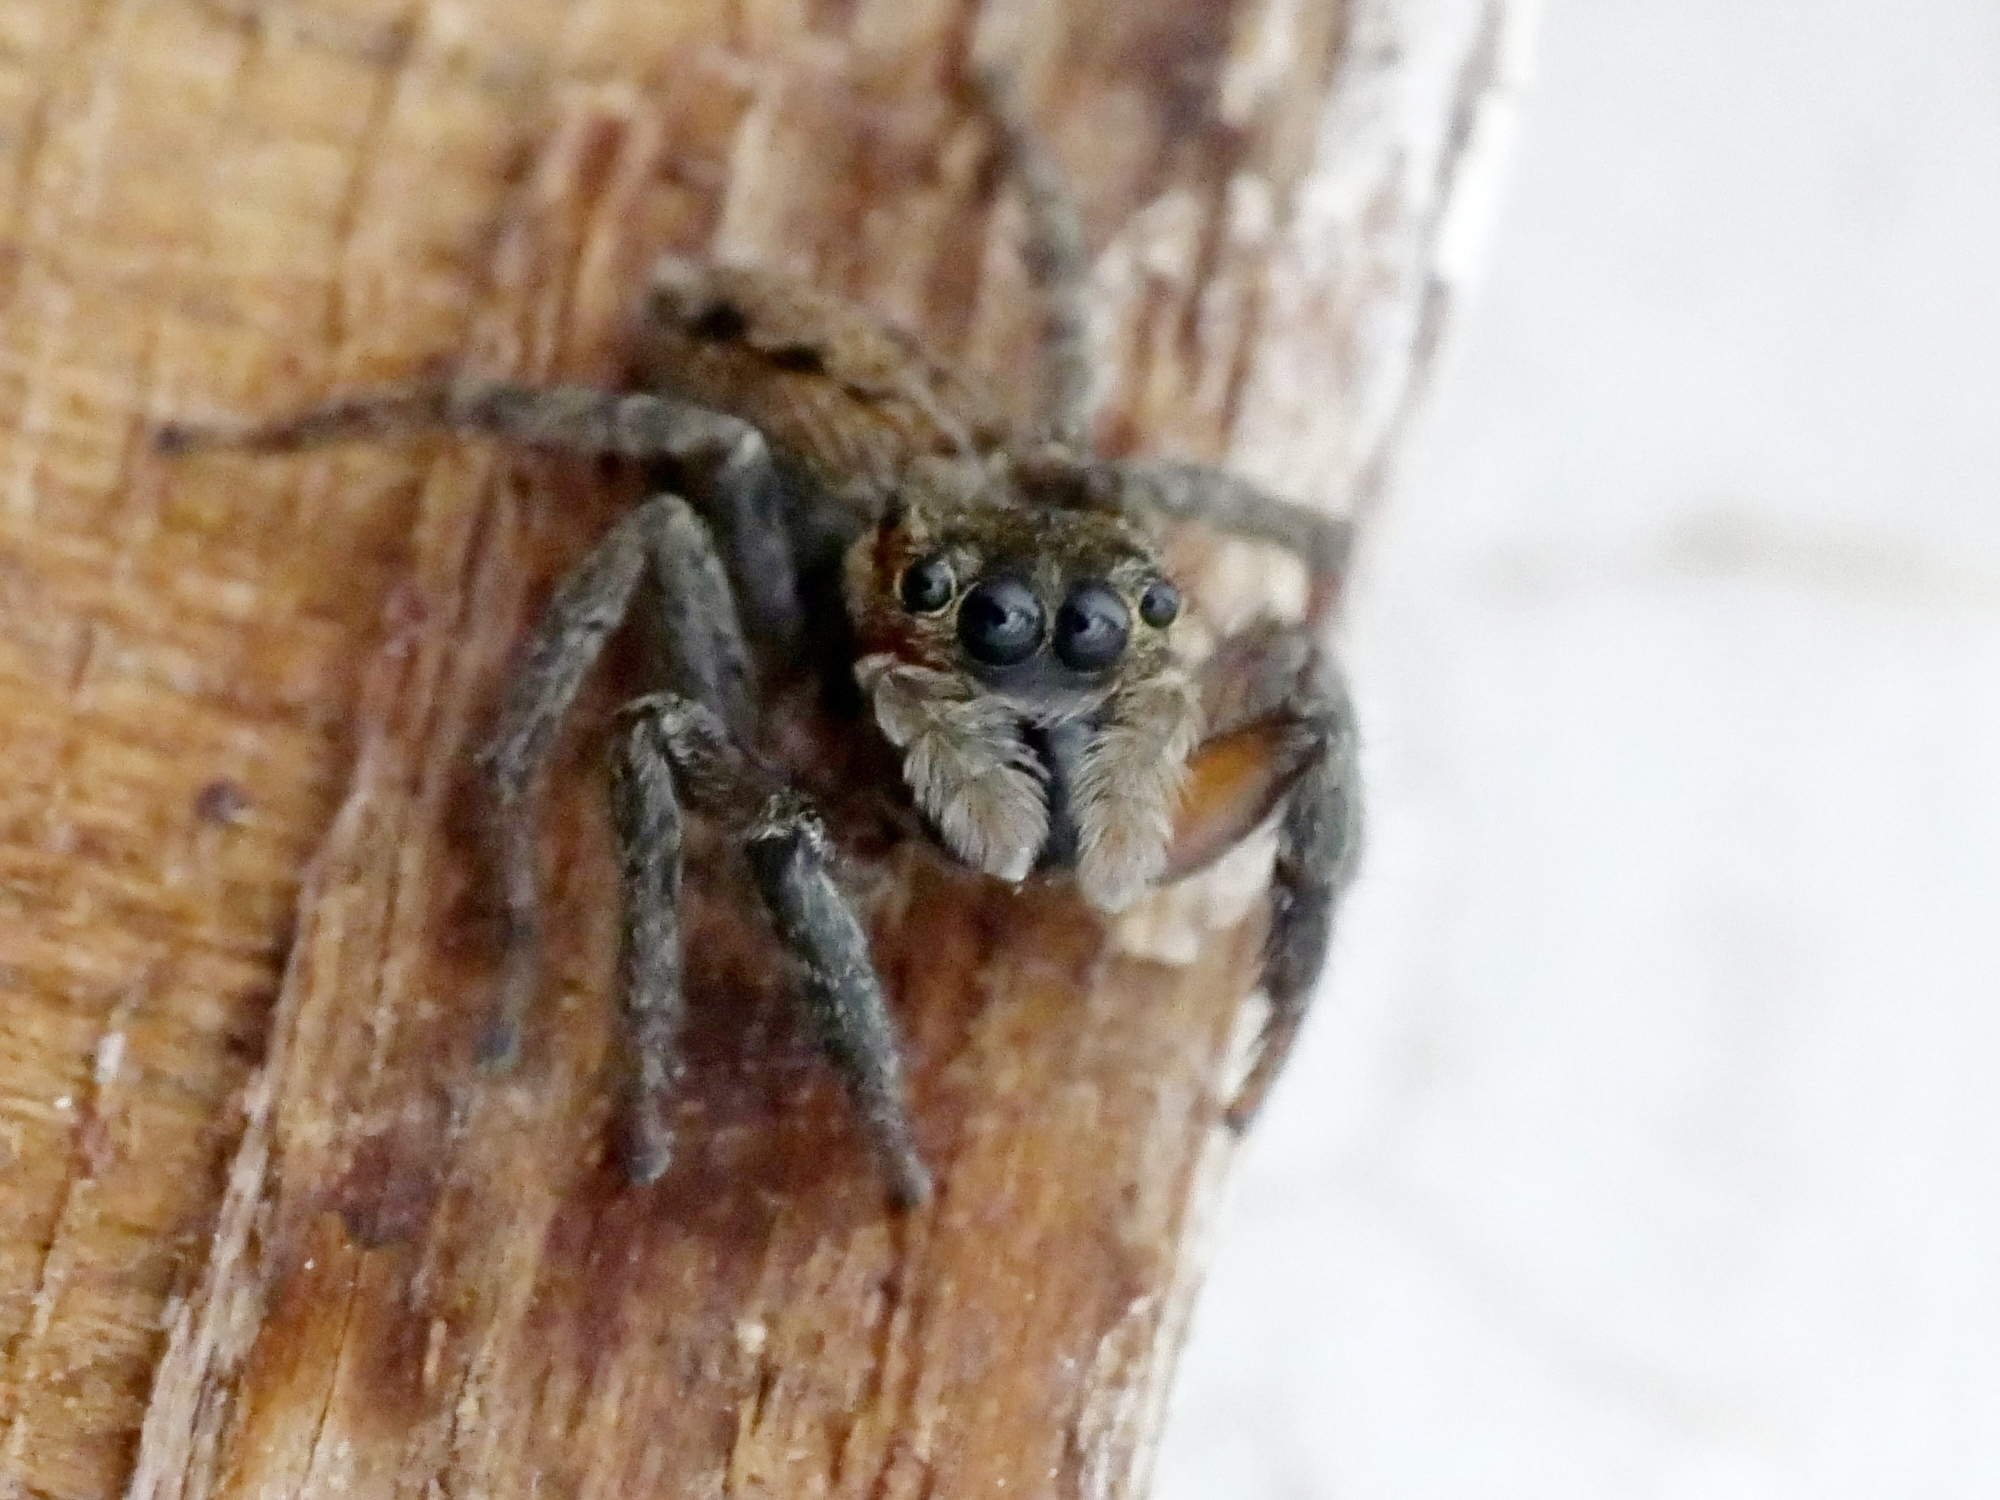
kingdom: Animalia
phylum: Arthropoda
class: Arachnida
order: Araneae
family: Salticidae
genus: Hasarius
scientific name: Hasarius adansoni
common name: Jumping spider
